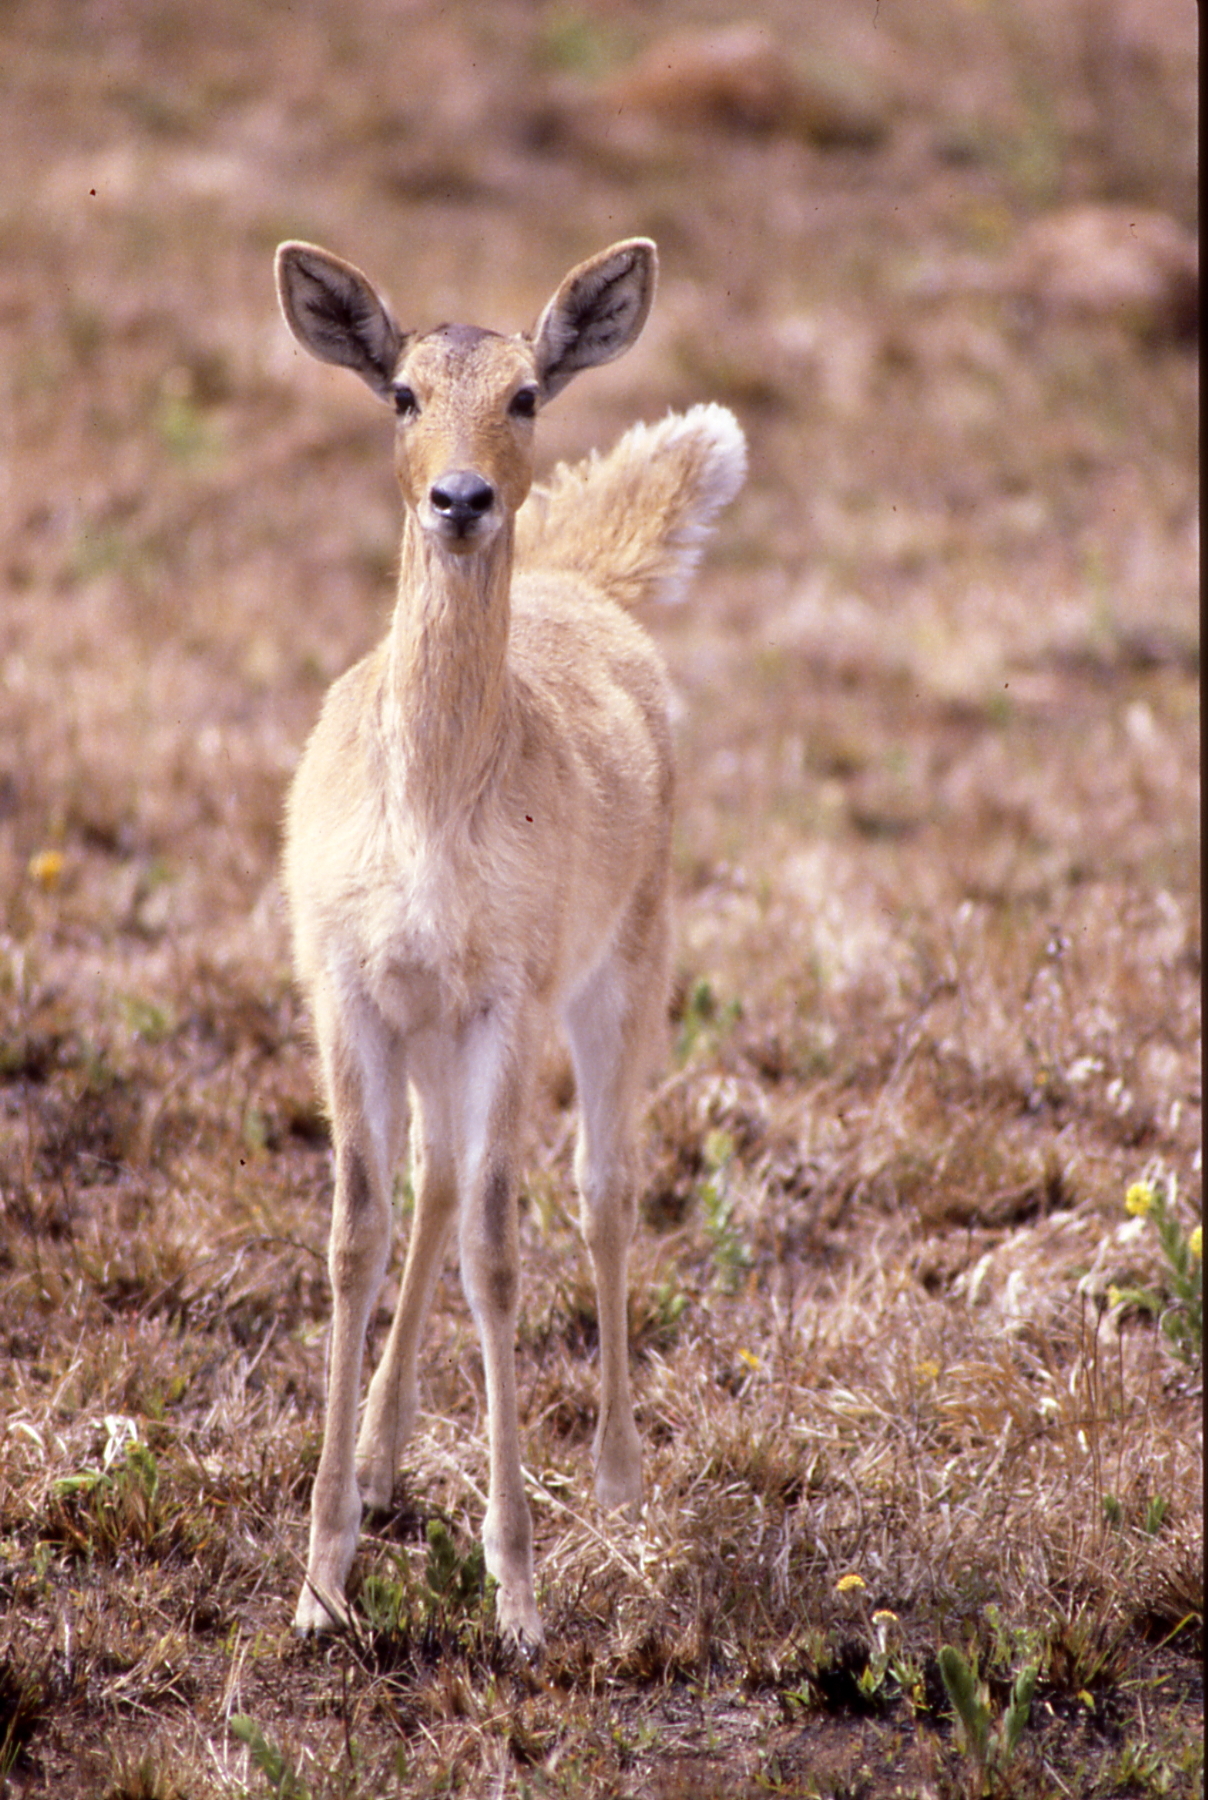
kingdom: Animalia
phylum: Chordata
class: Mammalia
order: Artiodactyla
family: Bovidae
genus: Redunca
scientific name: Redunca arundinum
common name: Southern reedbuck
